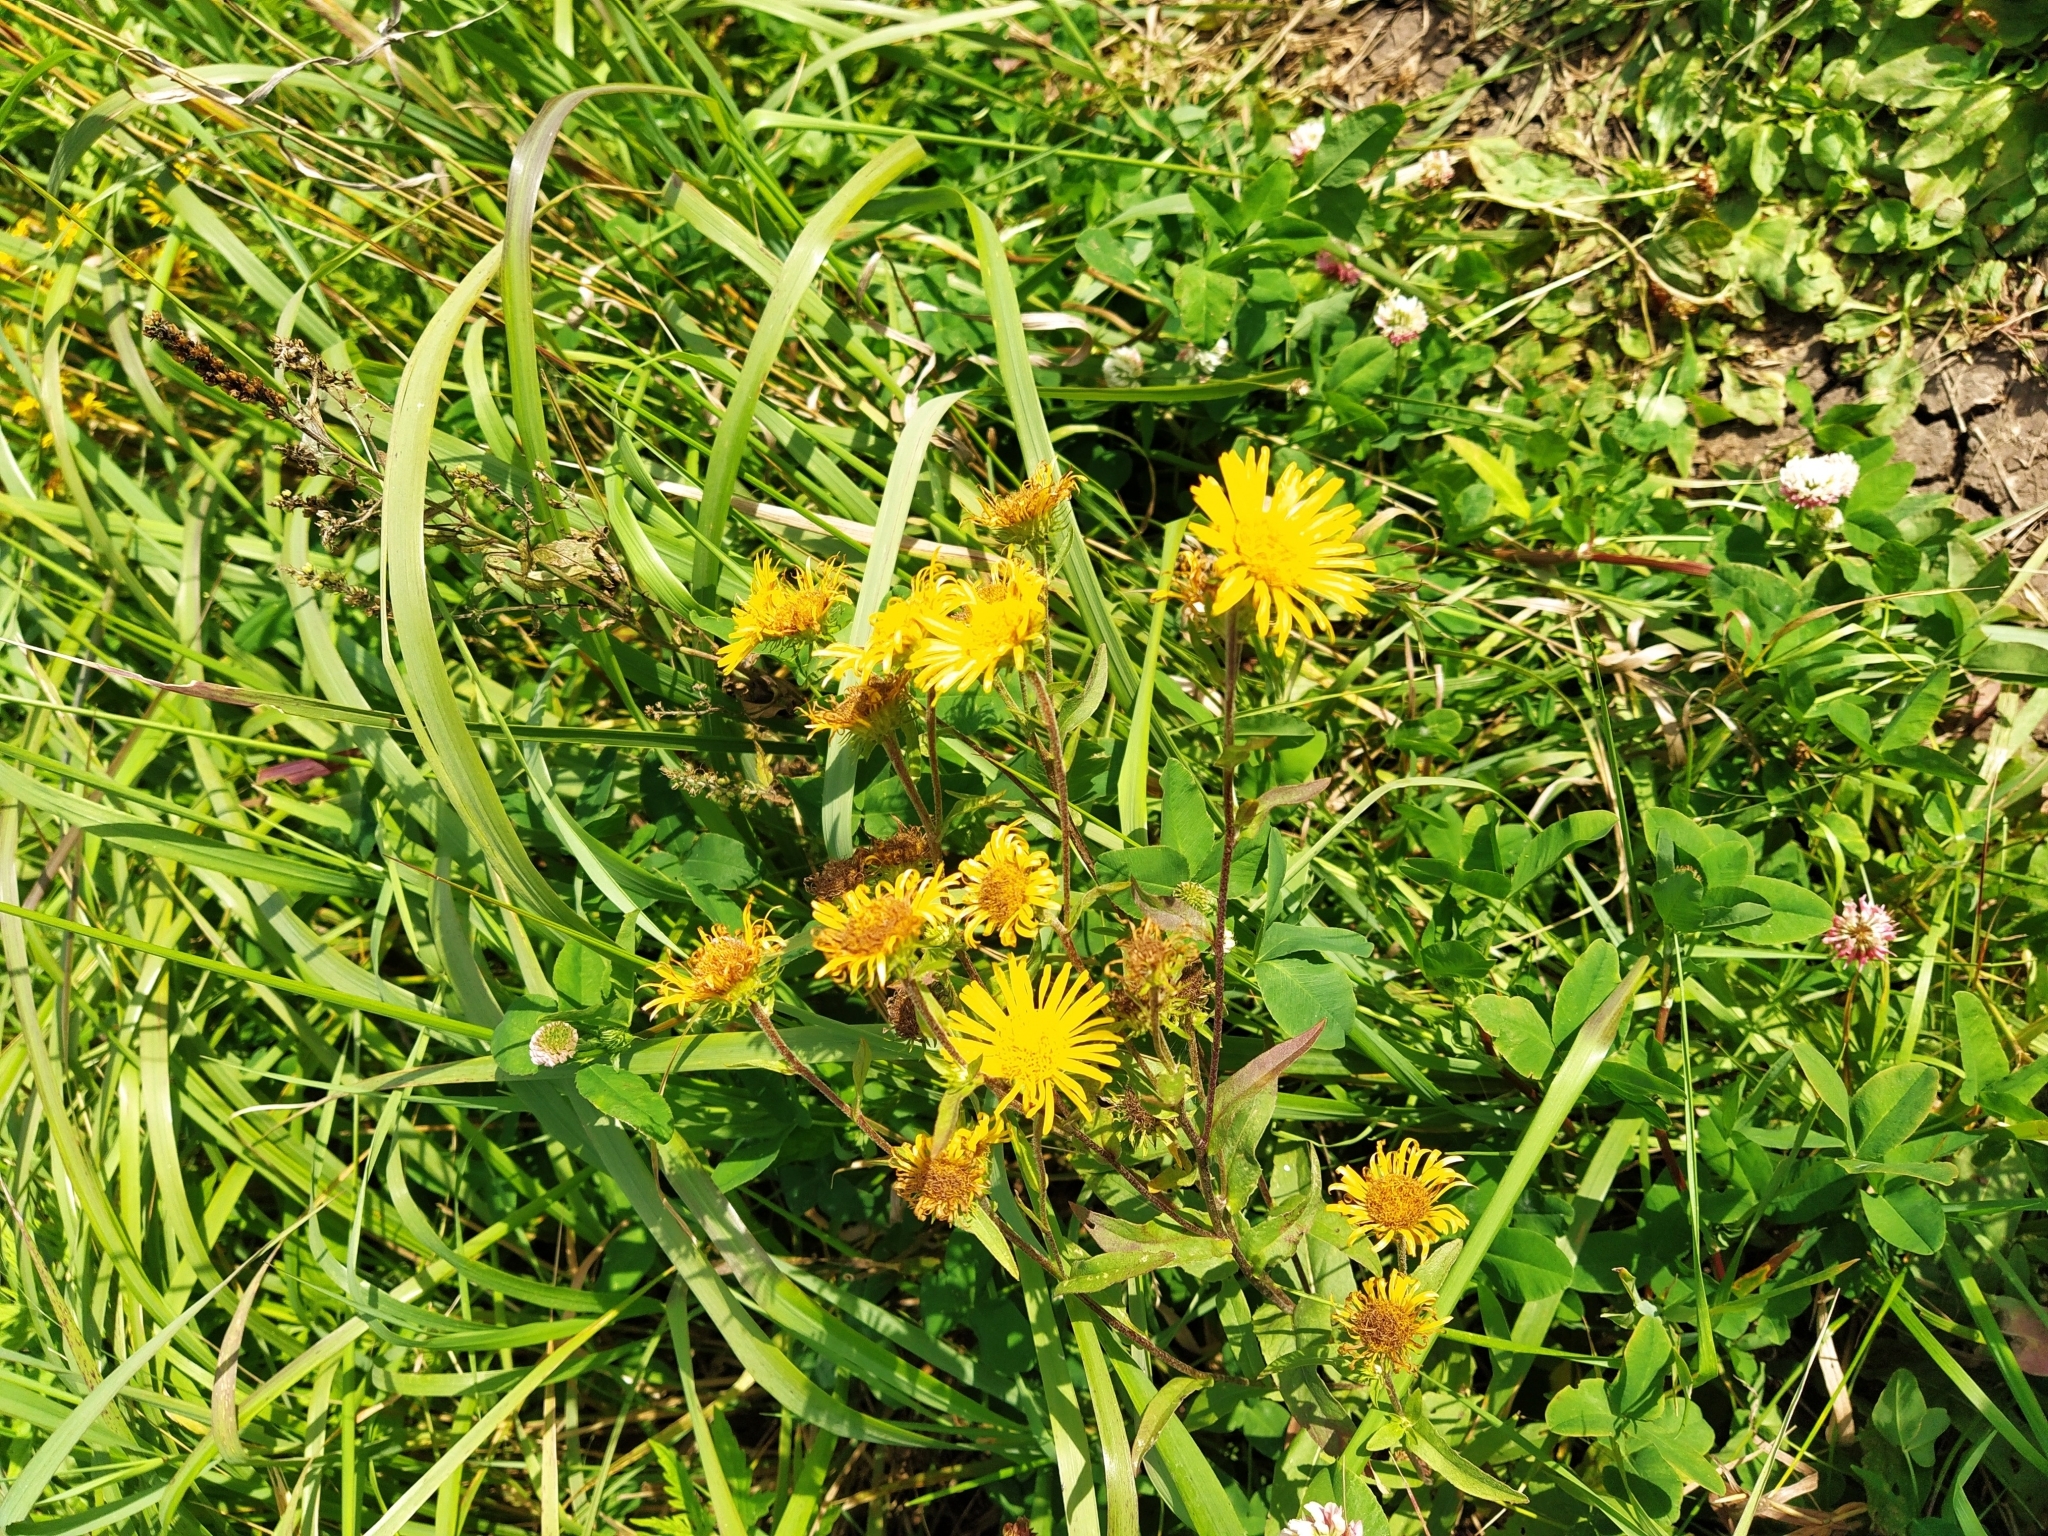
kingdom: Plantae
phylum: Tracheophyta
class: Magnoliopsida
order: Asterales
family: Asteraceae
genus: Pentanema
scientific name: Pentanema britannicum
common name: British elecampane
